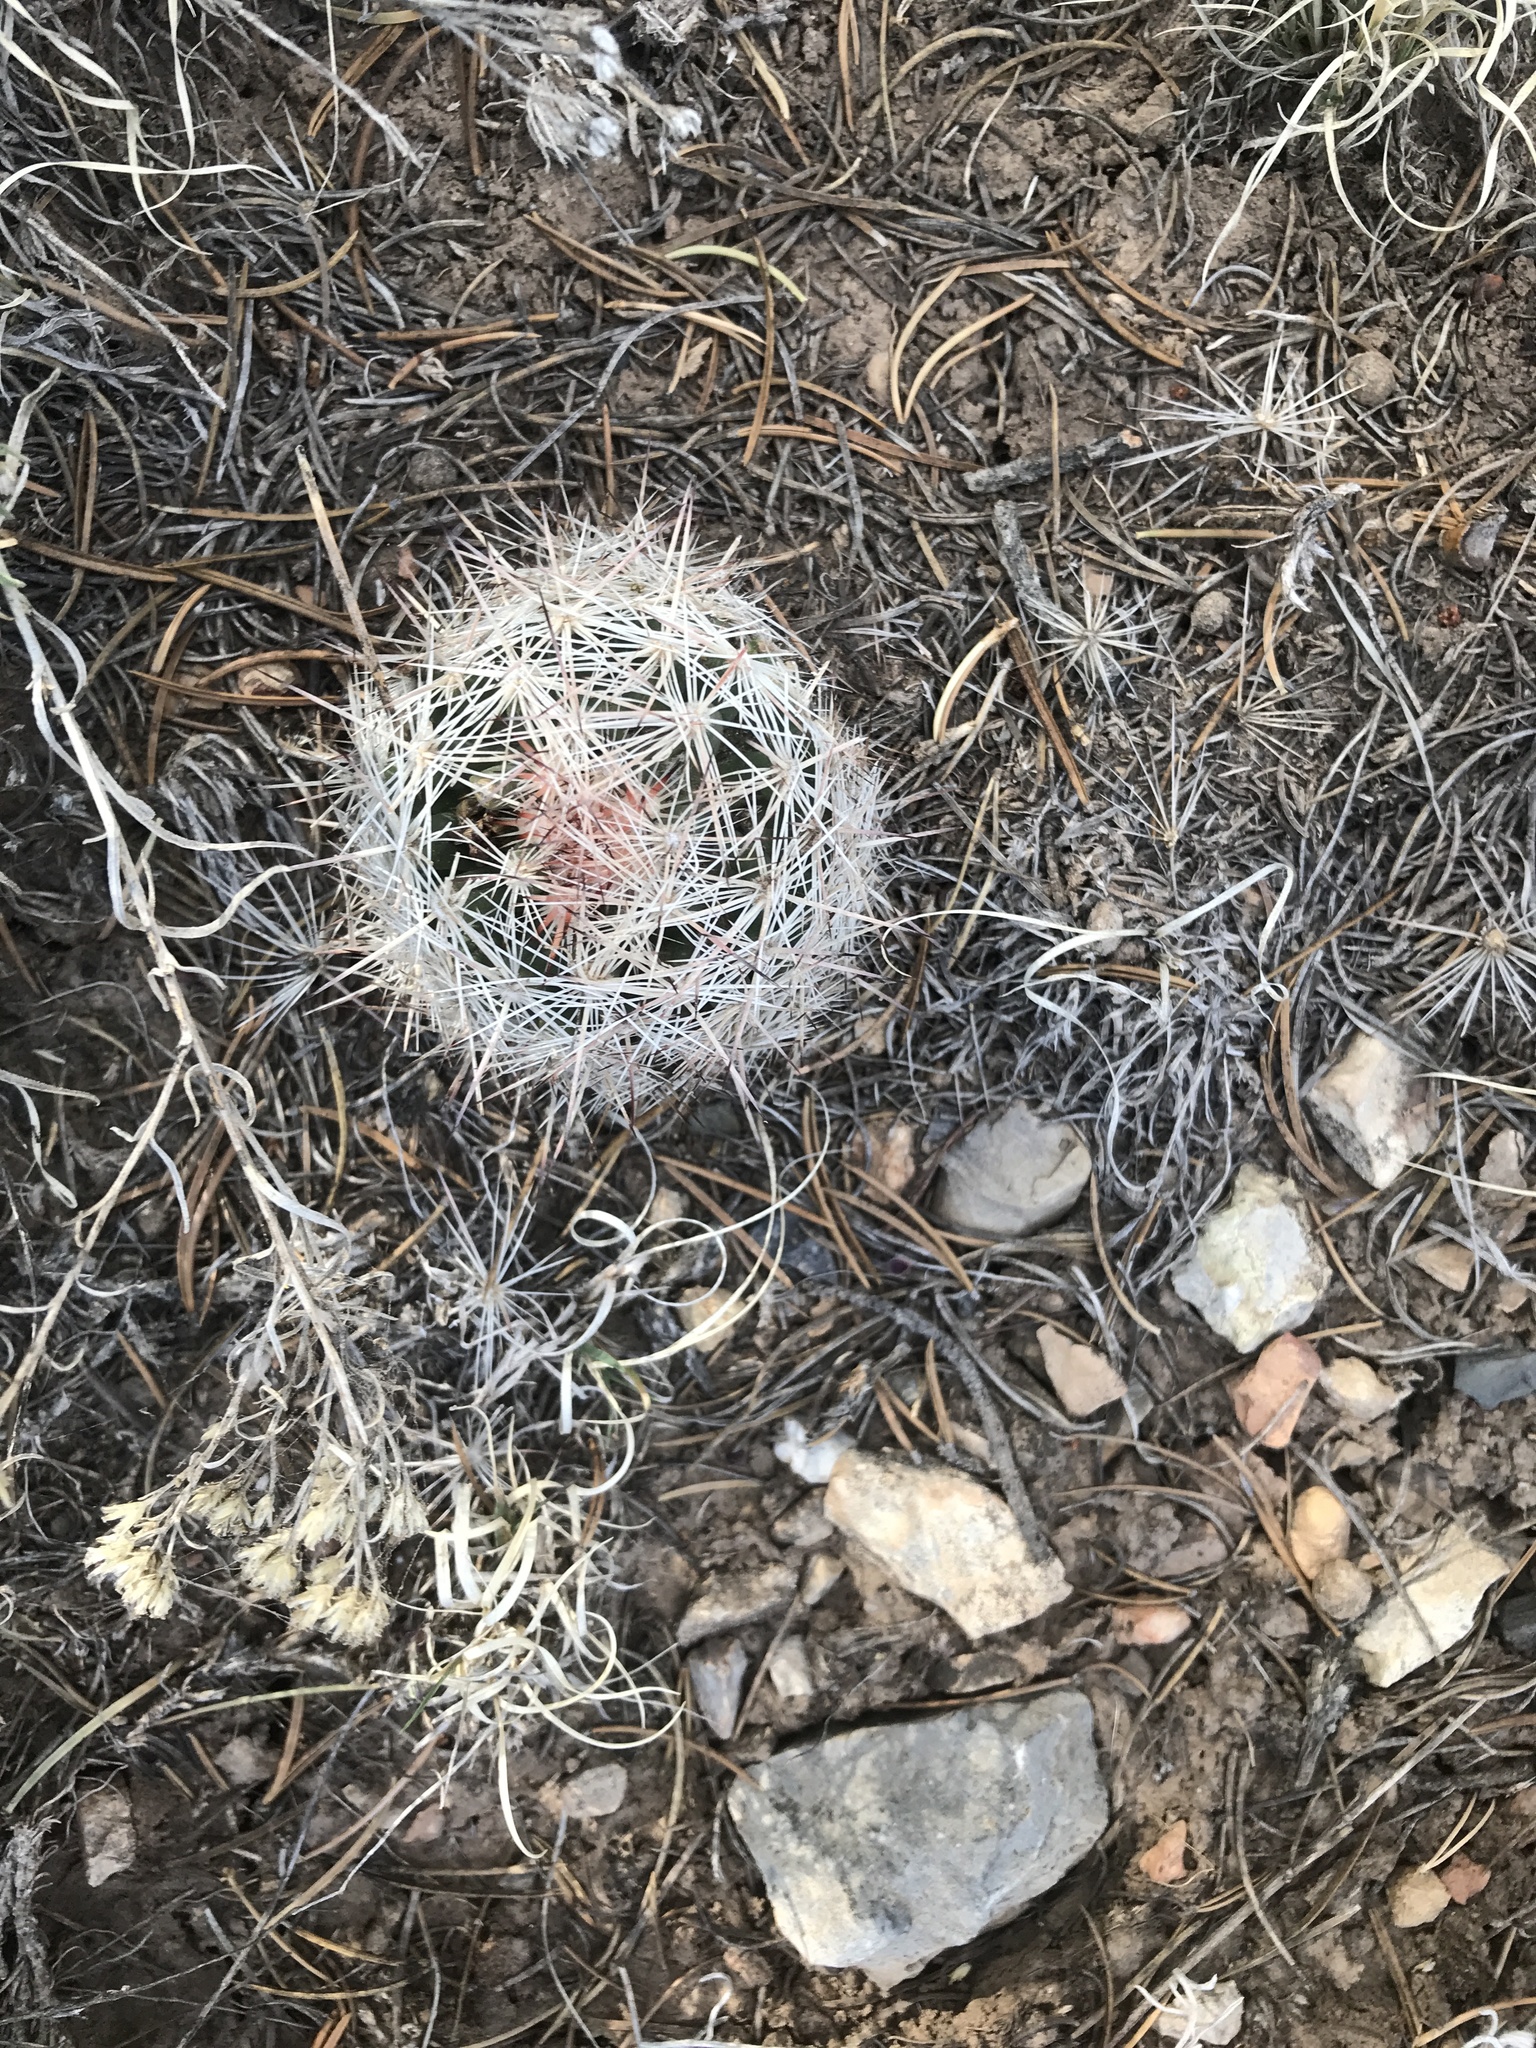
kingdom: Plantae
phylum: Tracheophyta
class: Magnoliopsida
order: Caryophyllales
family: Cactaceae
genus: Pelecyphora
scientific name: Pelecyphora vivipara
